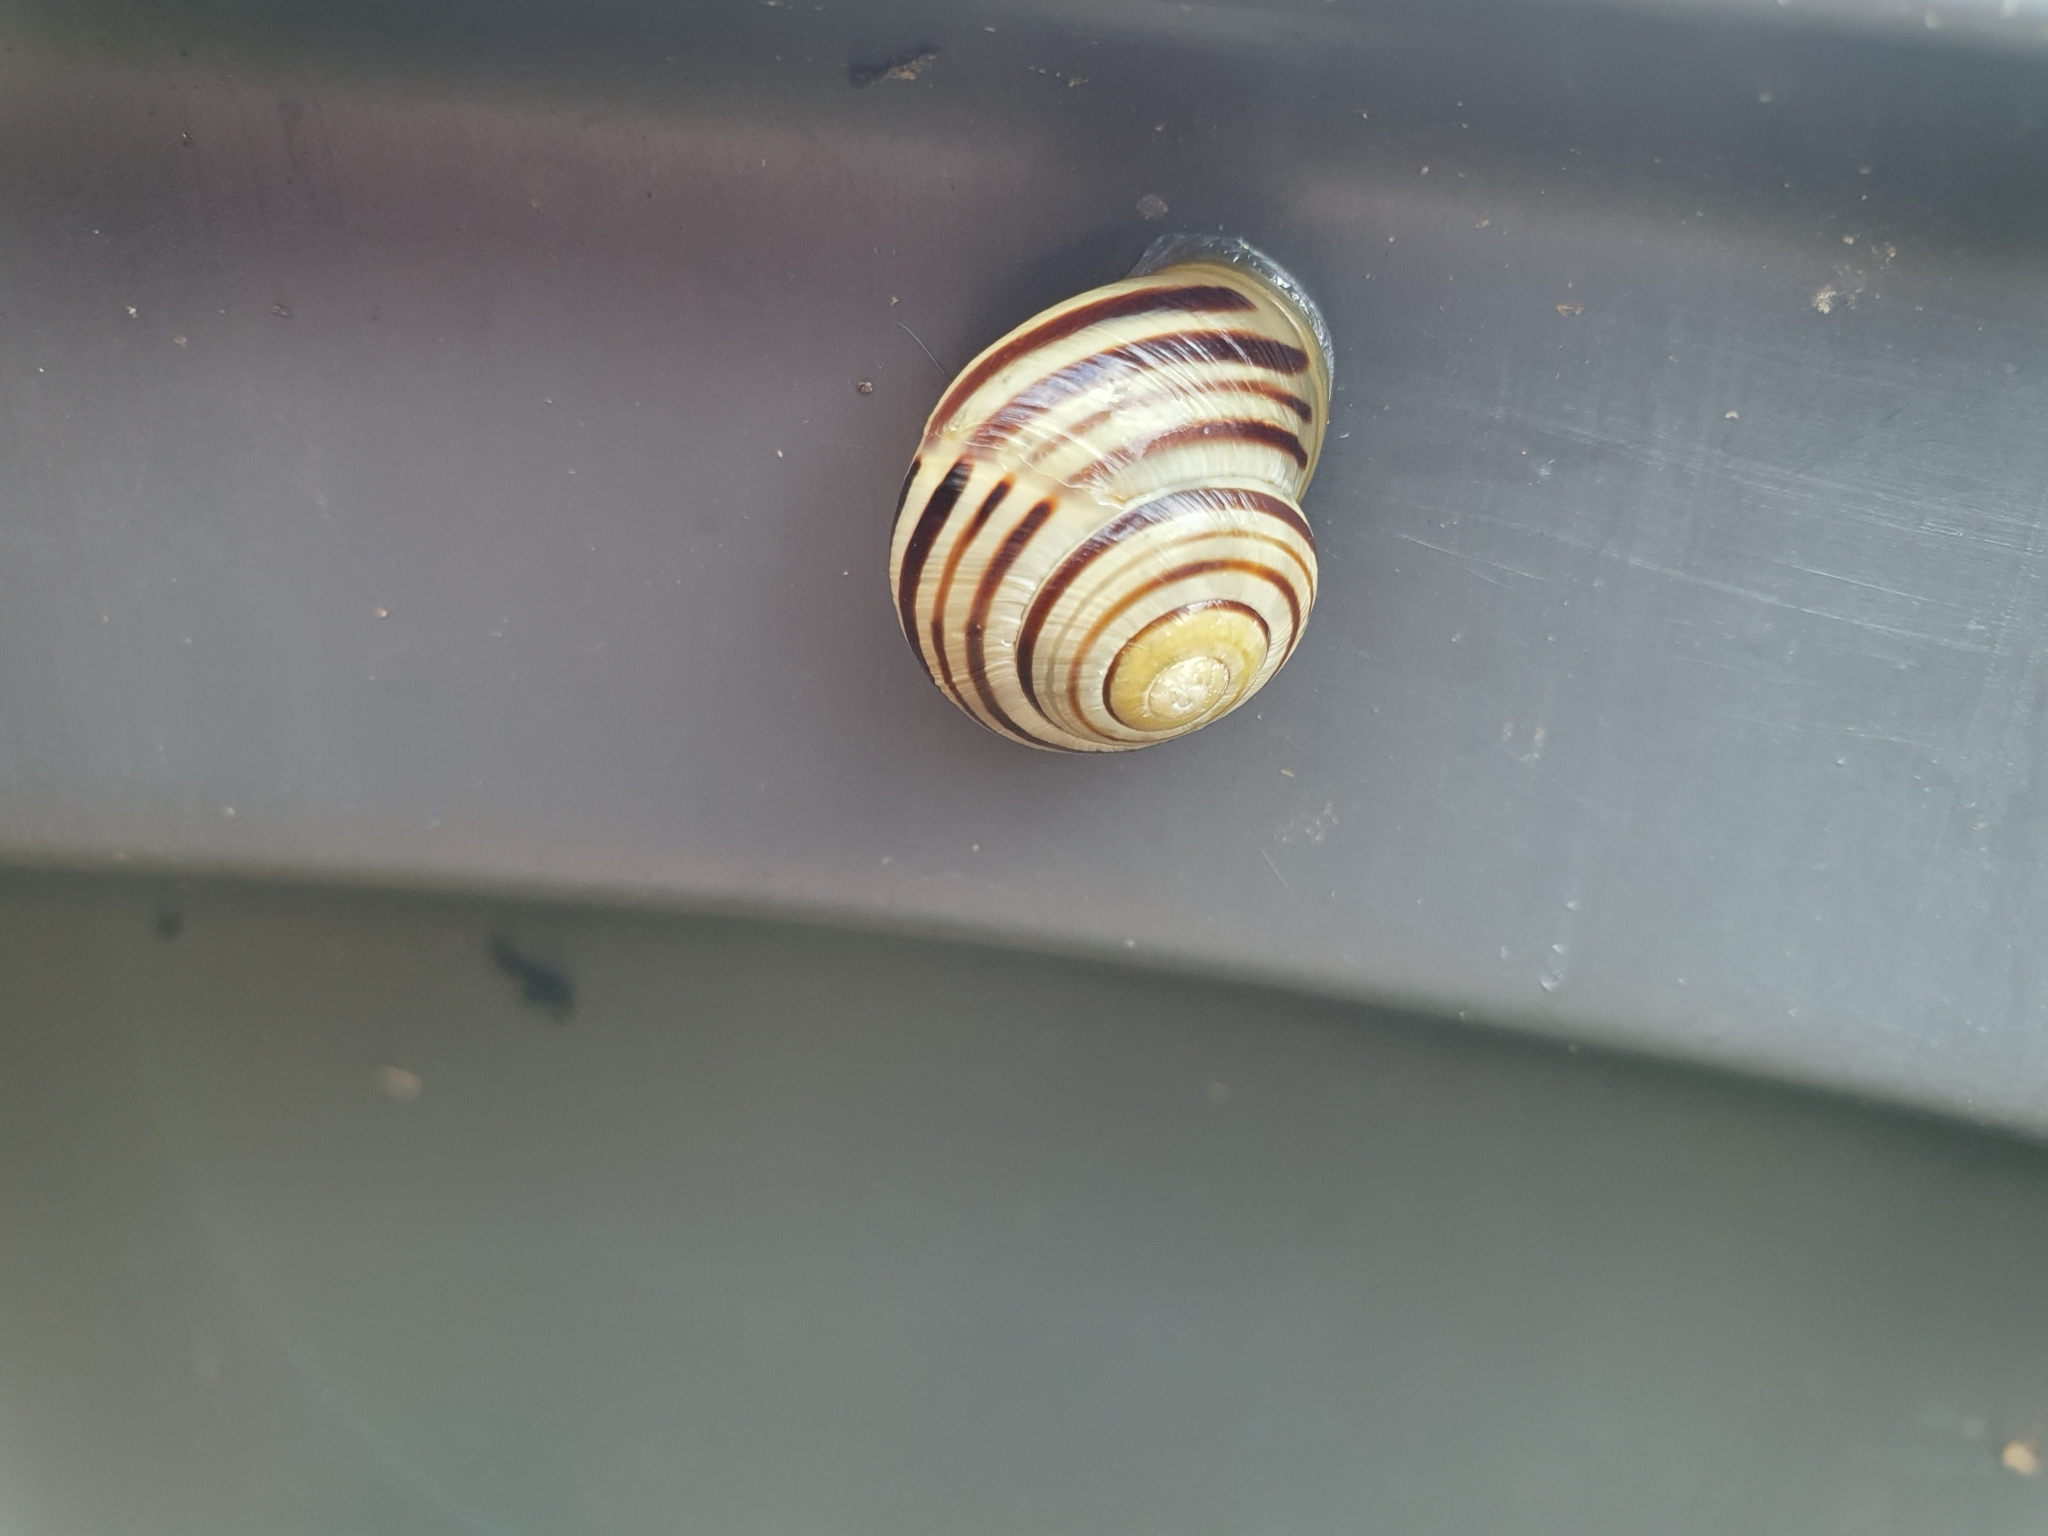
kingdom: Animalia
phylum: Mollusca
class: Gastropoda
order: Stylommatophora
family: Helicidae
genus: Cepaea
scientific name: Cepaea hortensis
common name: White-lip gardensnail
